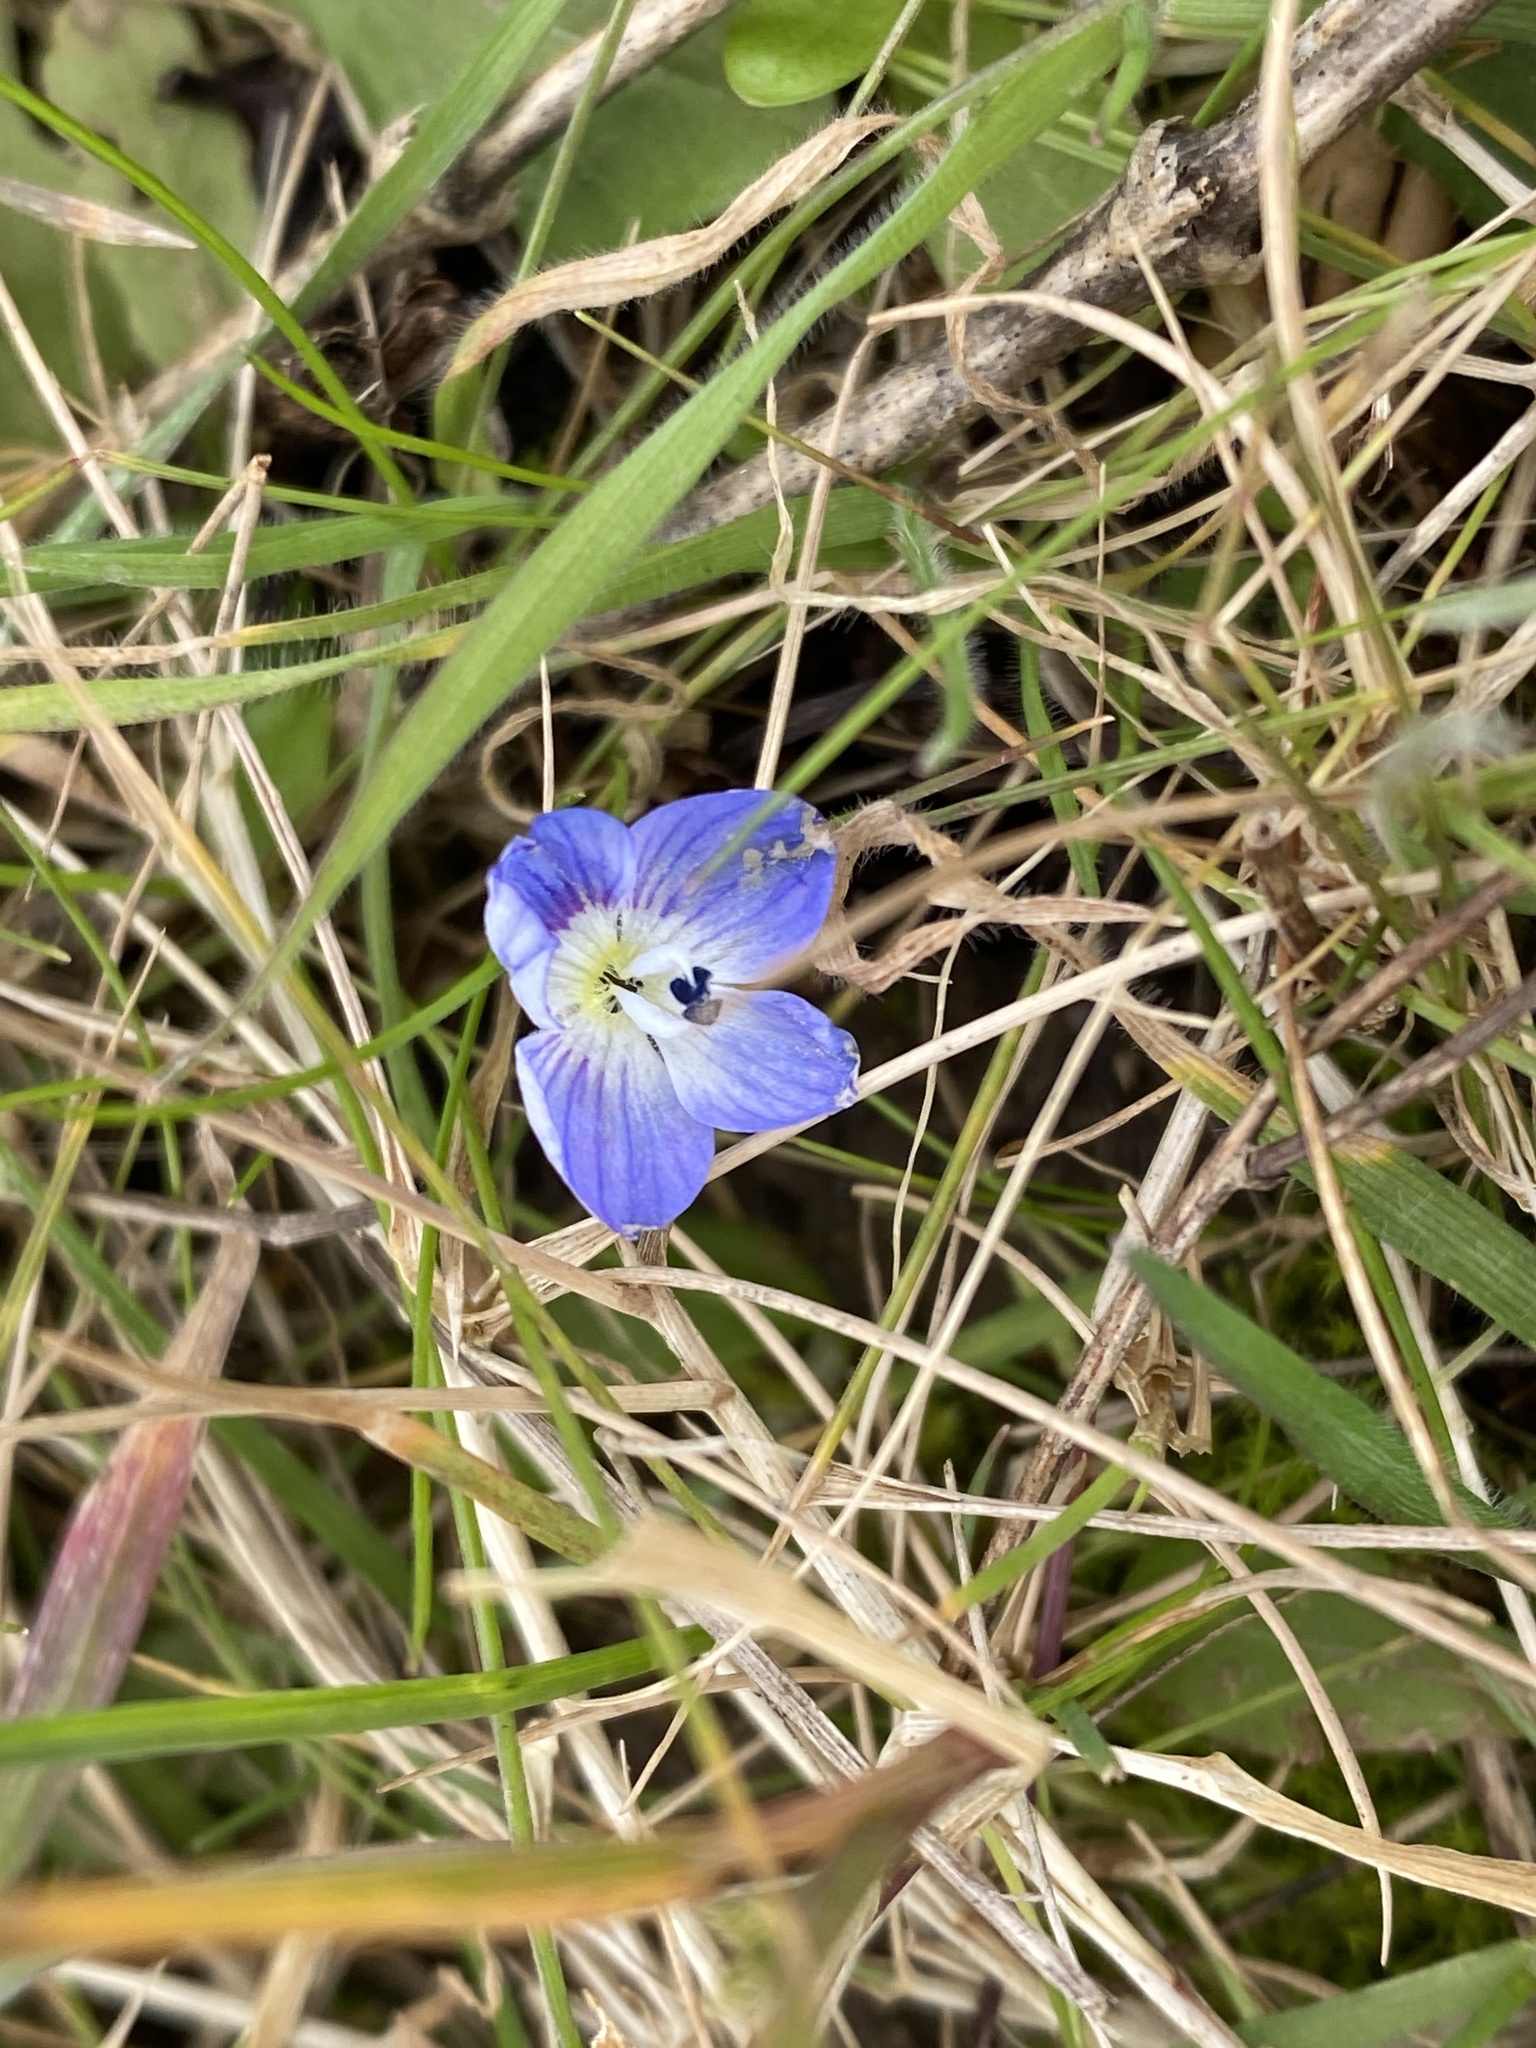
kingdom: Plantae
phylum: Tracheophyta
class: Magnoliopsida
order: Lamiales
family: Plantaginaceae
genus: Veronica
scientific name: Veronica persica
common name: Common field-speedwell
